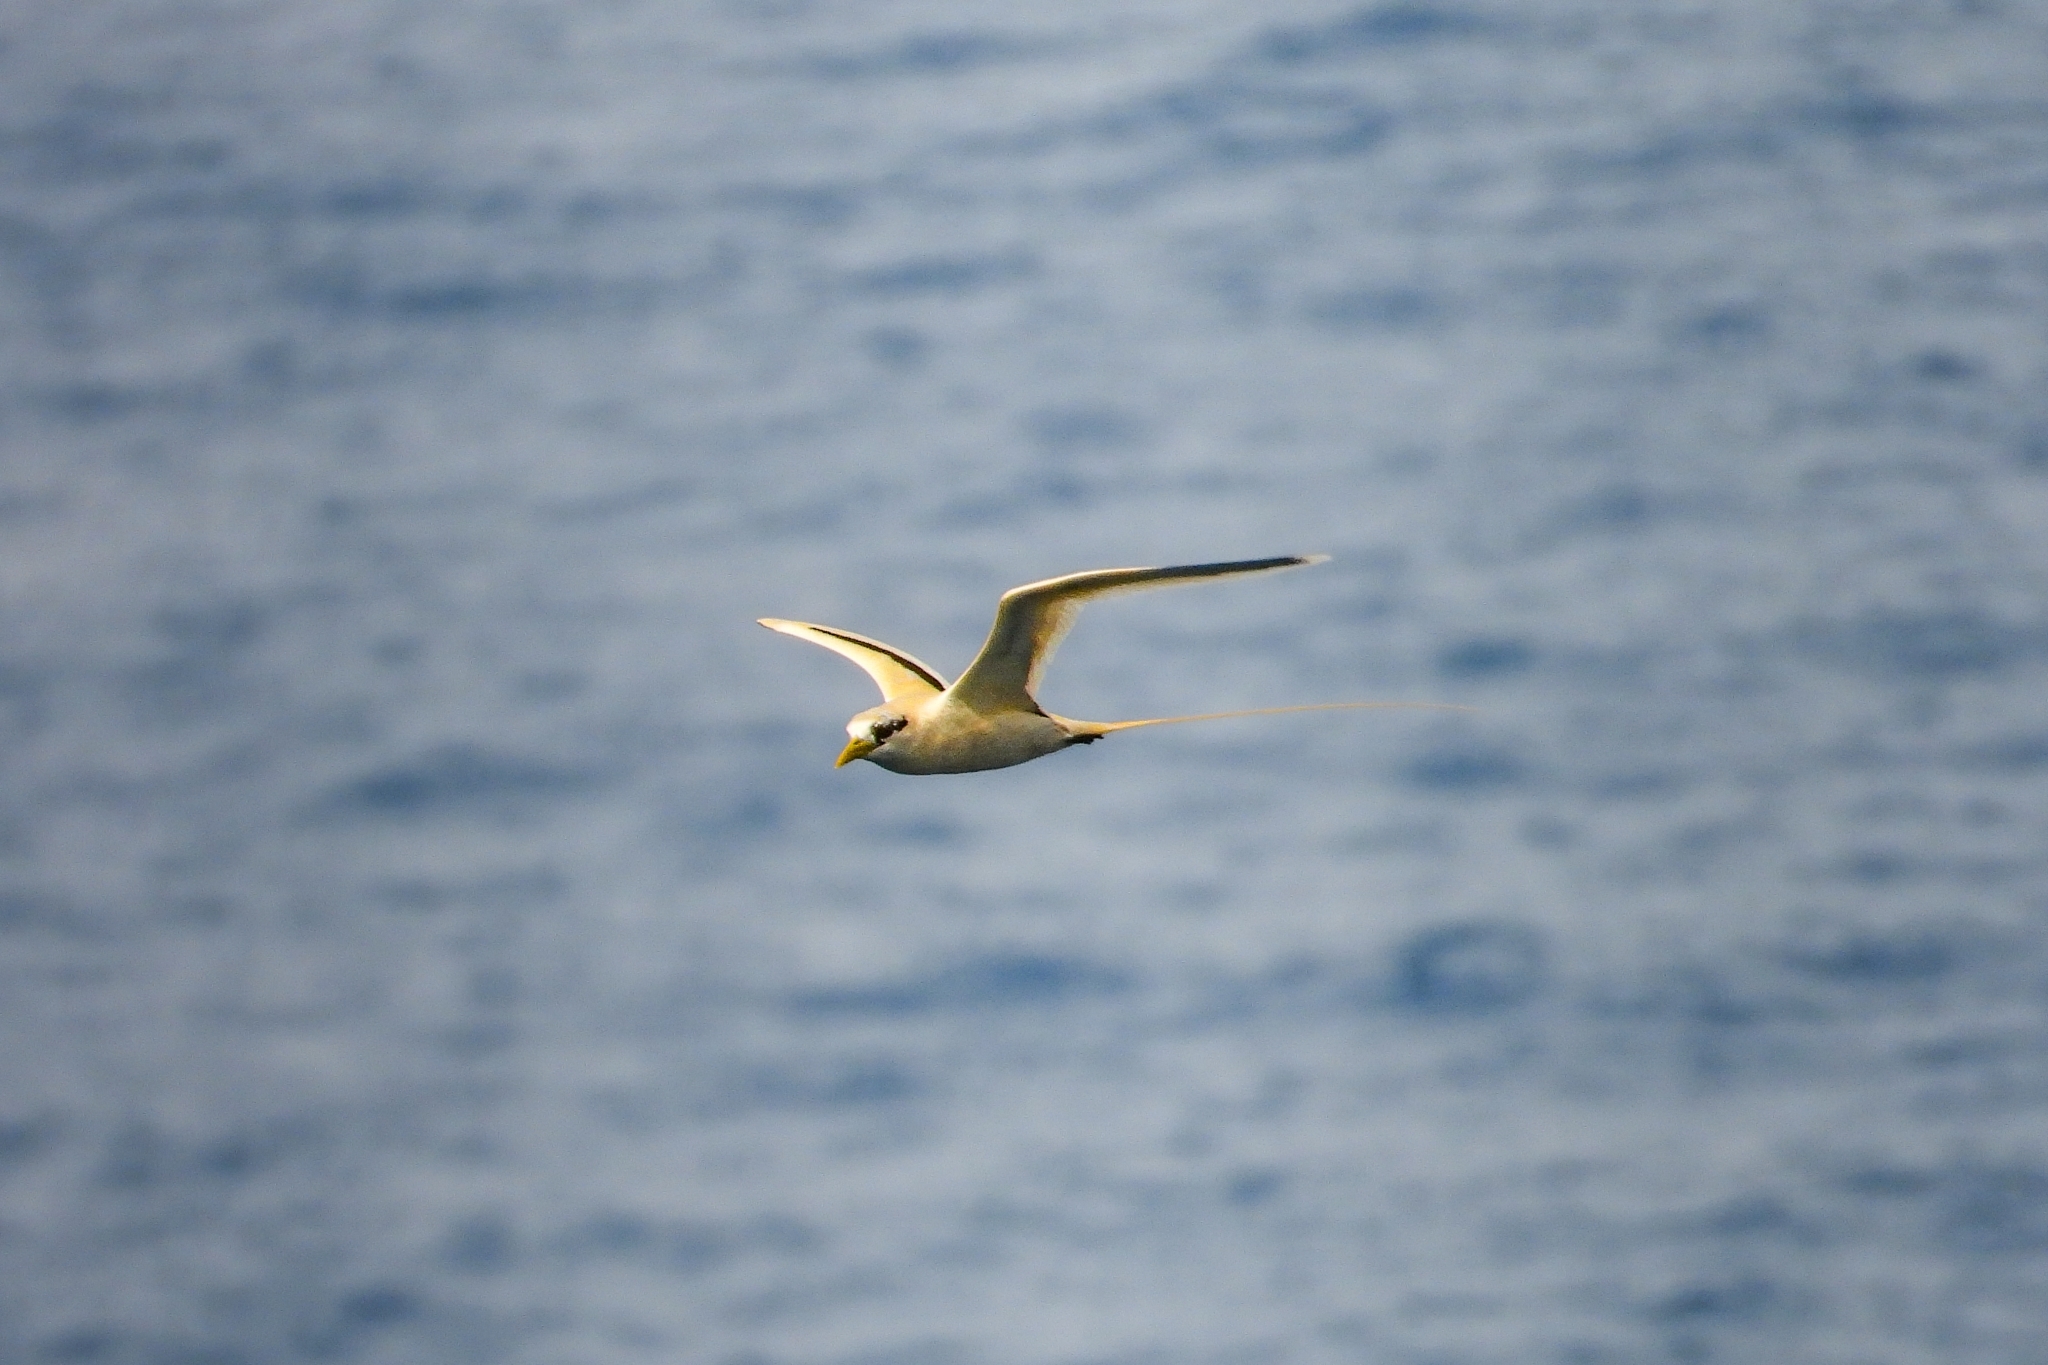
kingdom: Animalia
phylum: Chordata
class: Aves
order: Phaethontiformes
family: Phaethontidae
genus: Phaethon
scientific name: Phaethon lepturus
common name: White-tailed tropicbird
